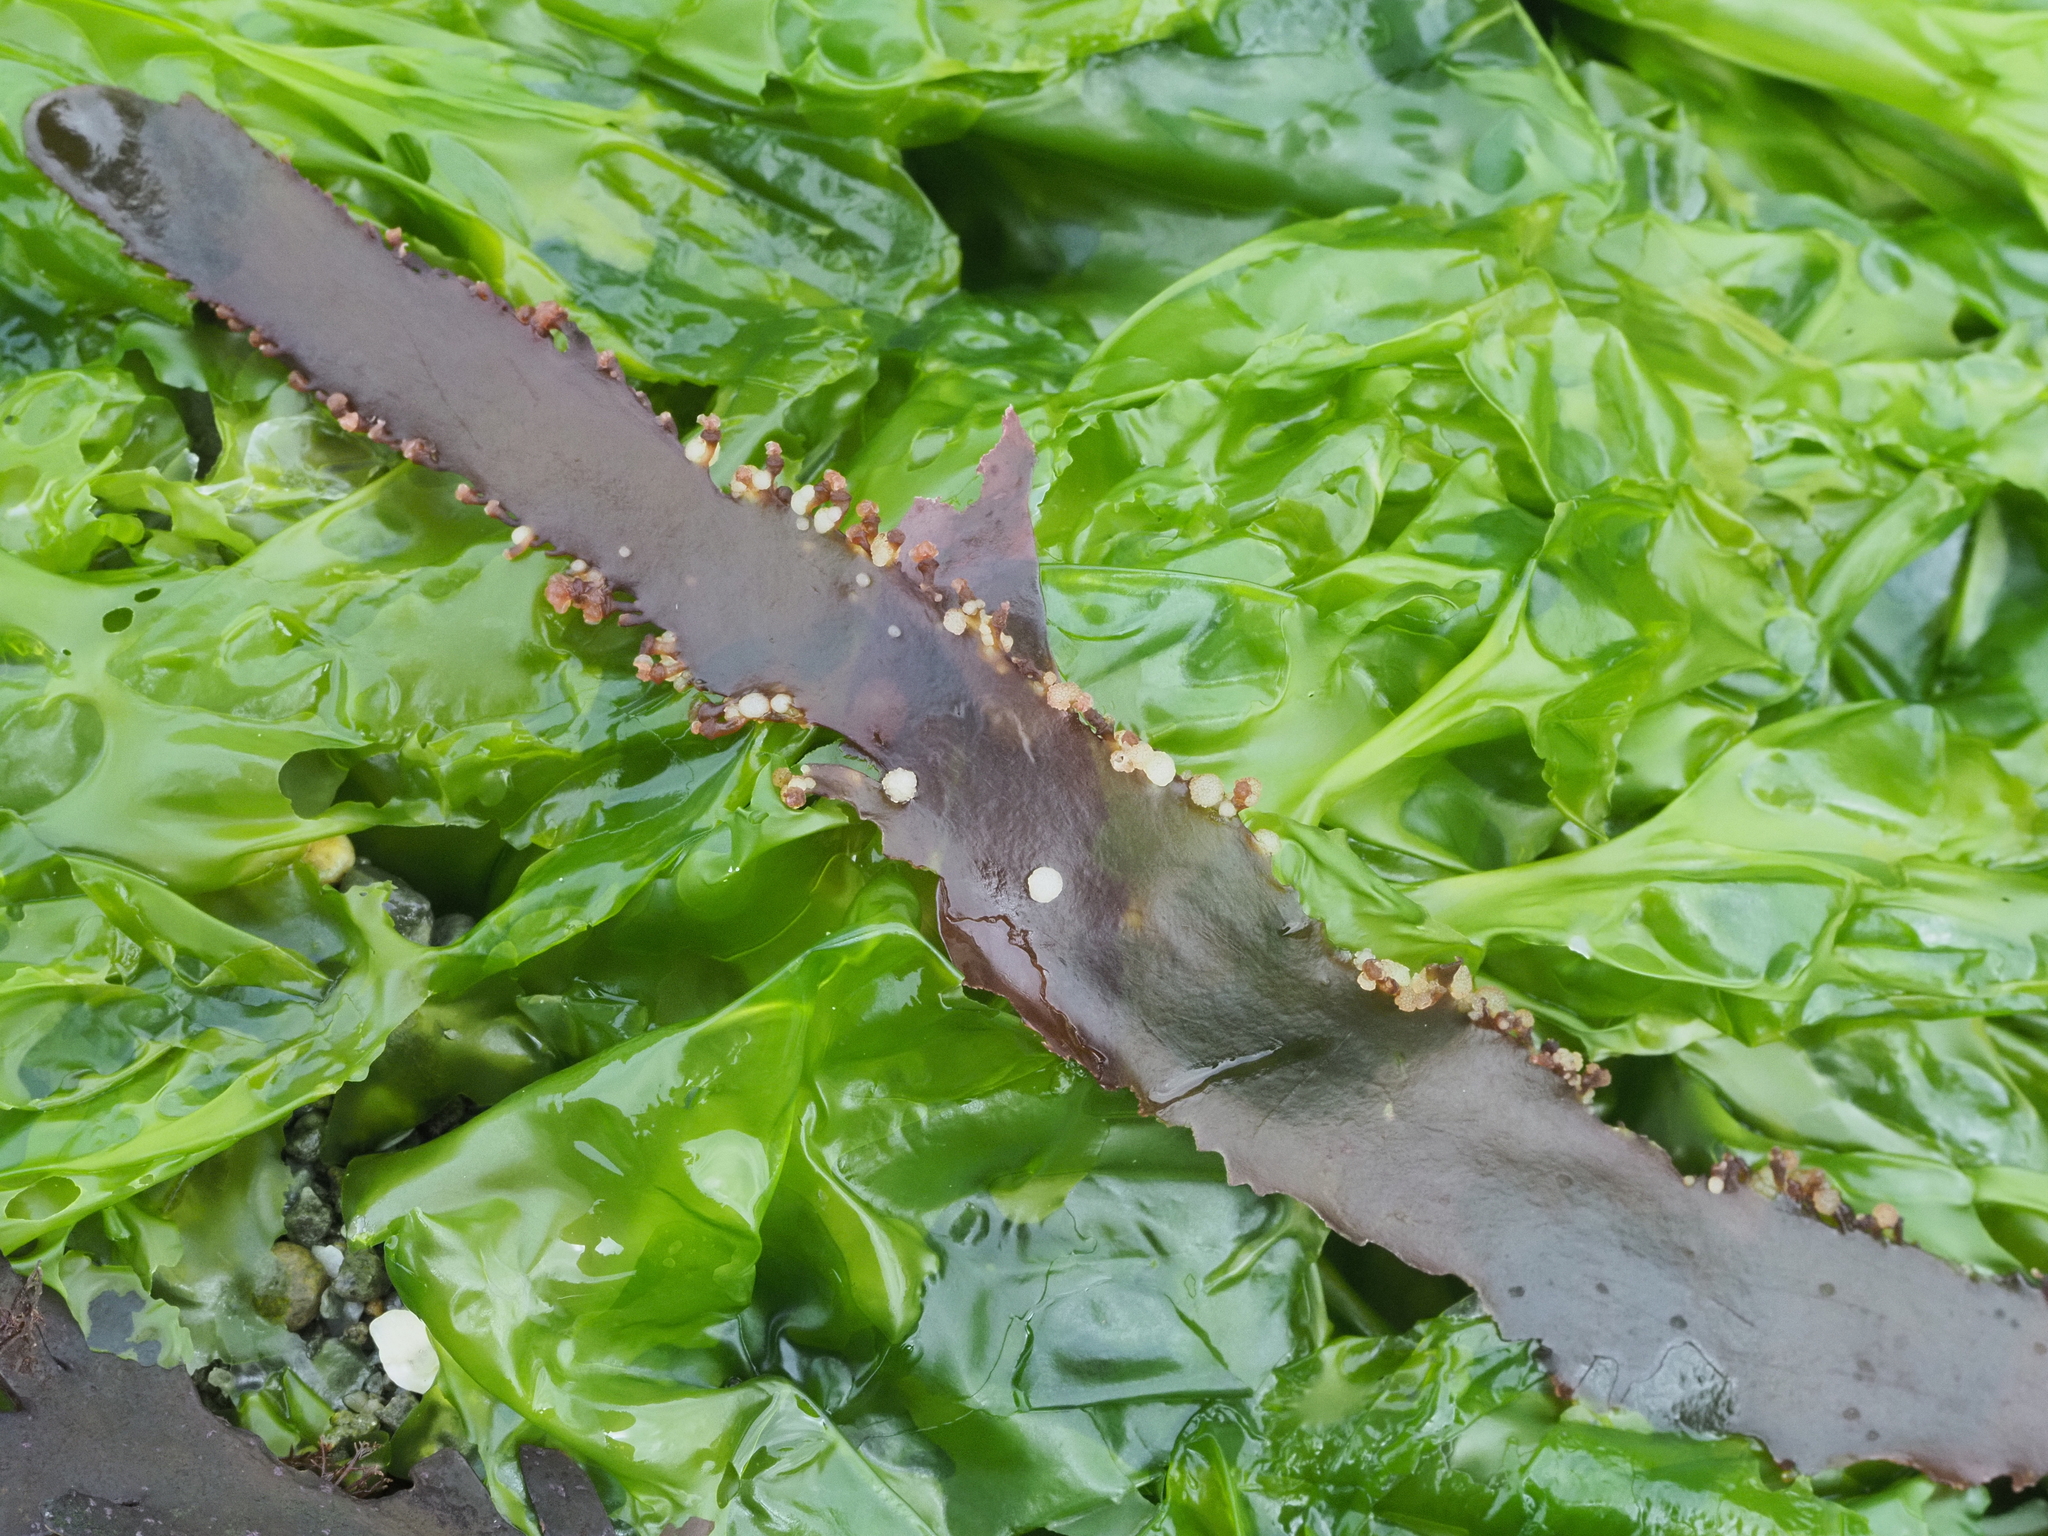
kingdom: Plantae
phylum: Rhodophyta
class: Florideophyceae
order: Gigartinales
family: Kallymeniaceae
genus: Blastophyllis
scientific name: Blastophyllis calliblepharoides
